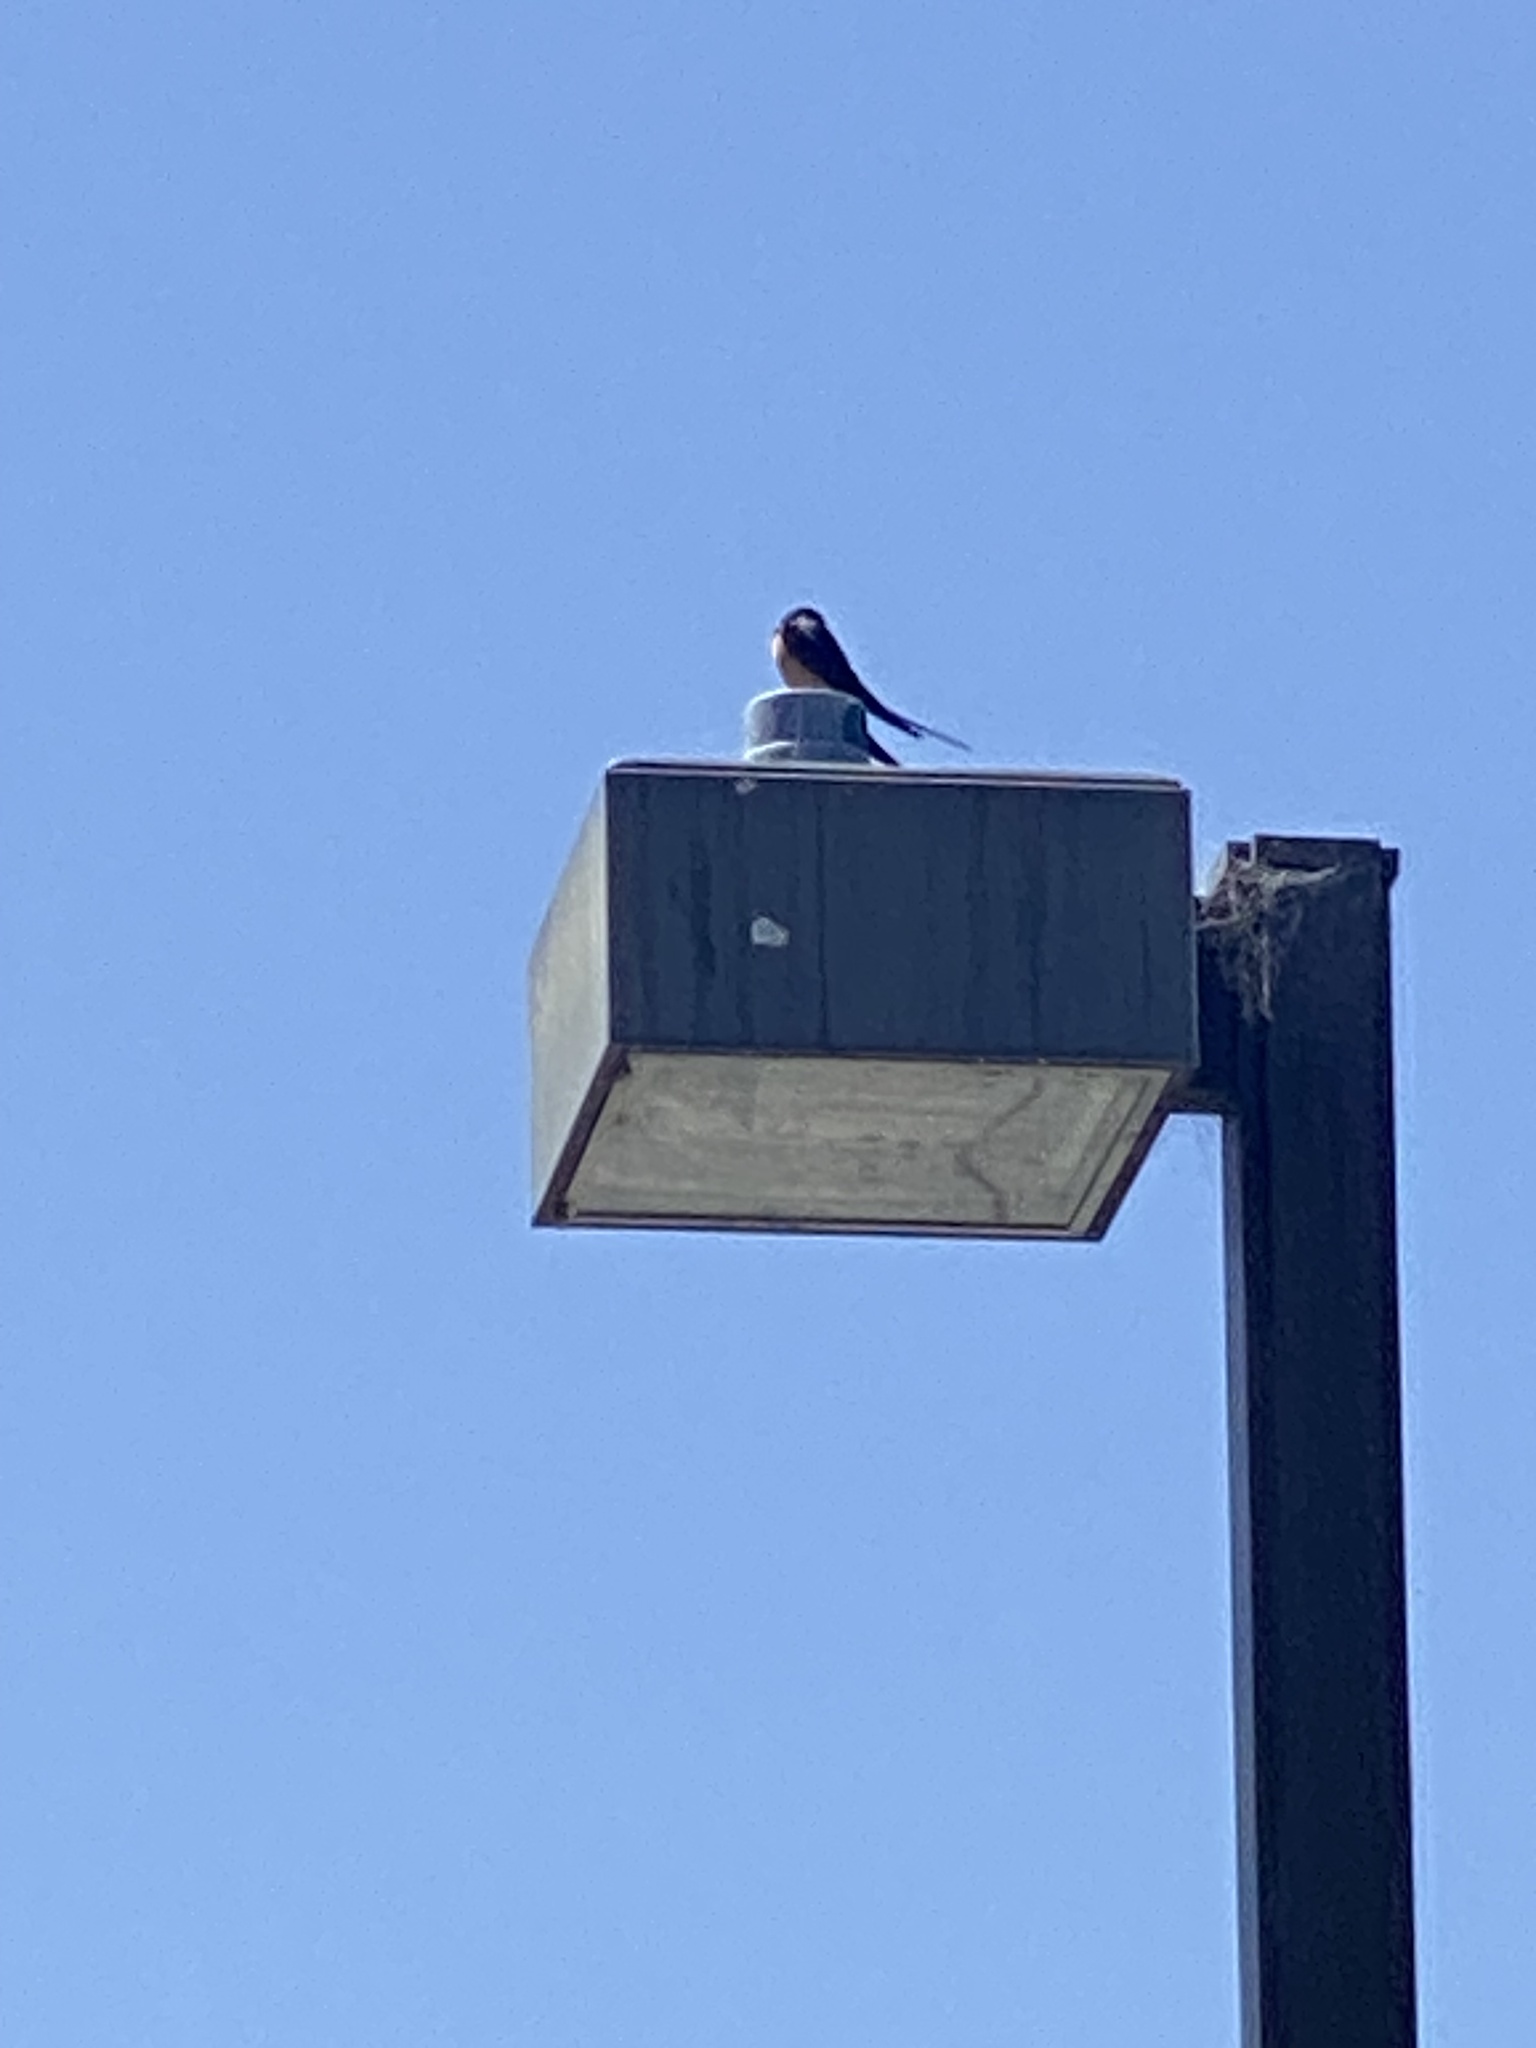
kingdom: Animalia
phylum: Chordata
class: Aves
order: Passeriformes
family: Hirundinidae
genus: Hirundo
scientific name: Hirundo rustica
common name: Barn swallow
